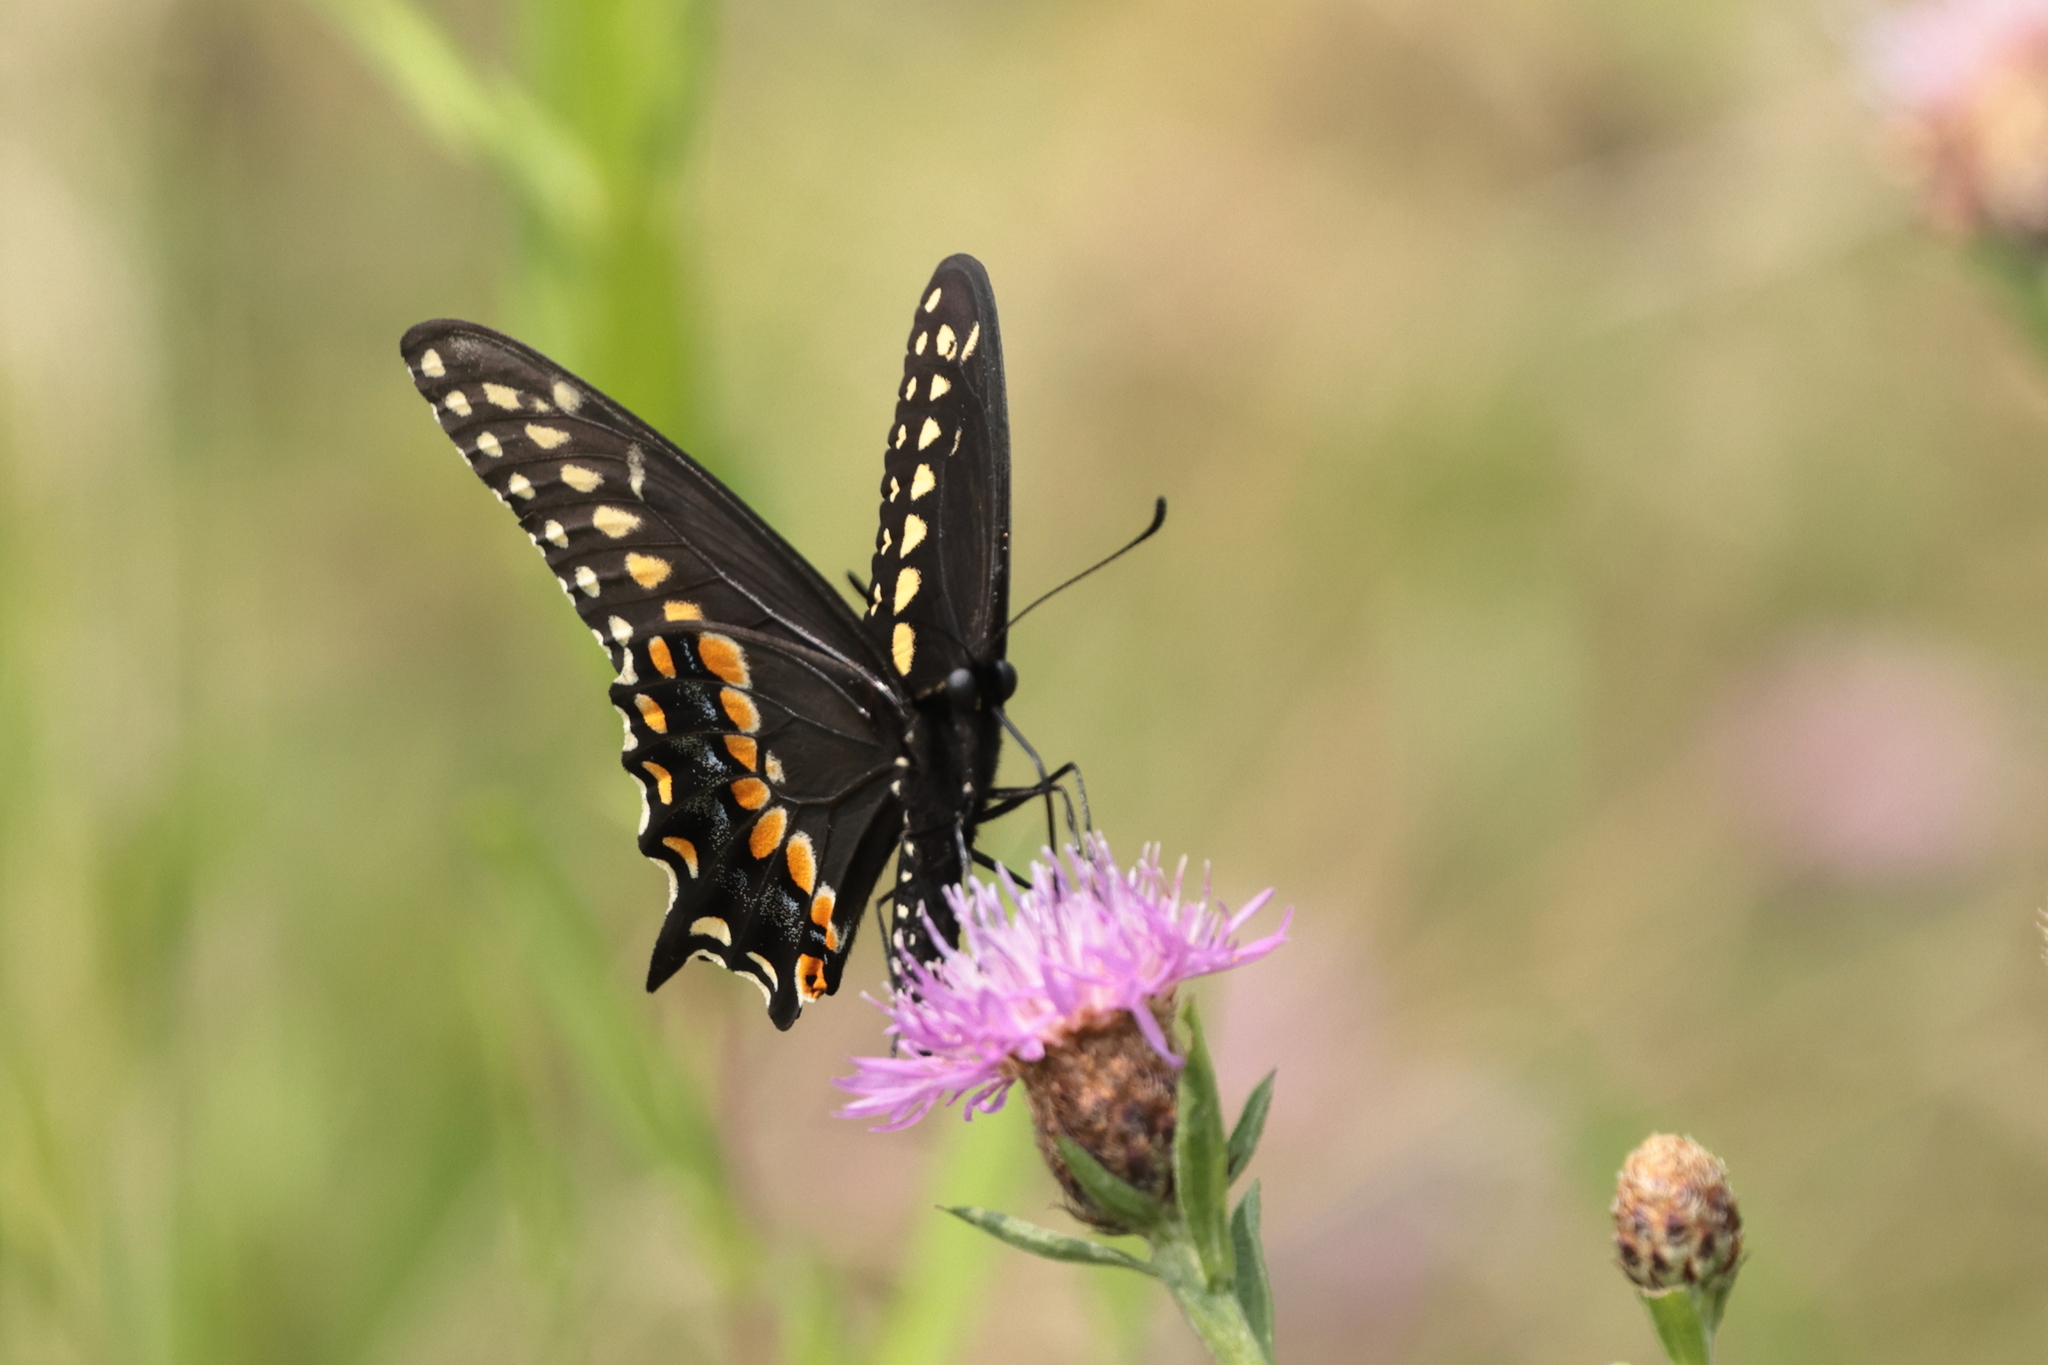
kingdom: Animalia
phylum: Arthropoda
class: Insecta
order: Lepidoptera
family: Papilionidae
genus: Papilio
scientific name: Papilio polyxenes
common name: Black swallowtail
